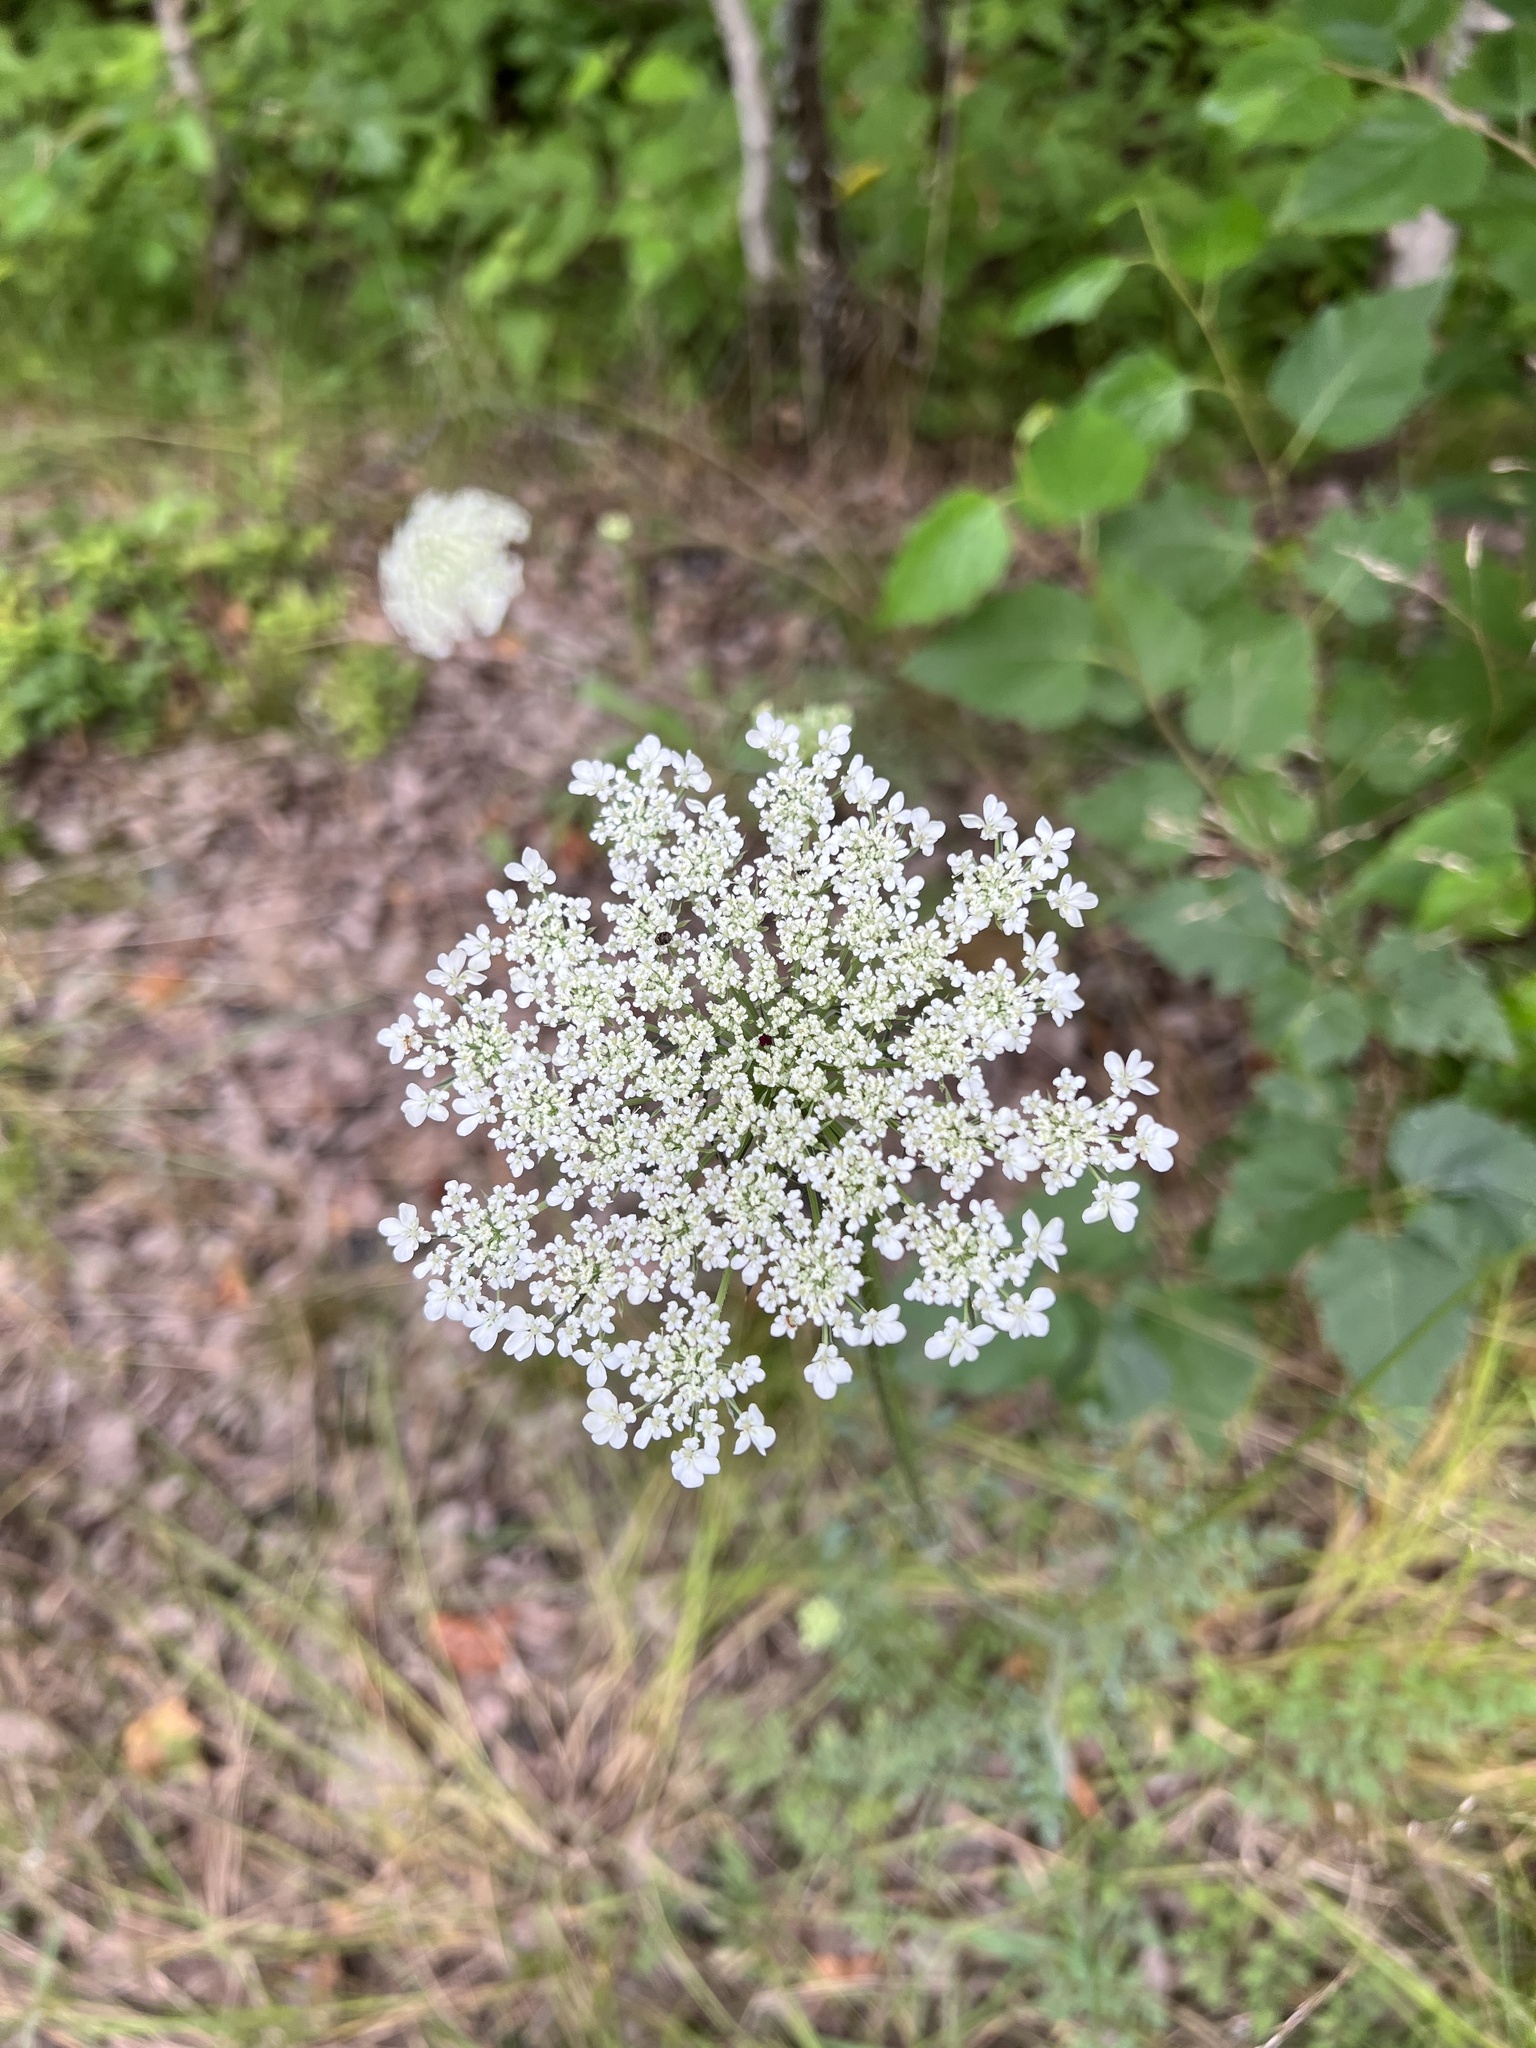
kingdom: Plantae
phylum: Tracheophyta
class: Magnoliopsida
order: Apiales
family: Apiaceae
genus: Daucus
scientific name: Daucus carota
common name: Wild carrot
